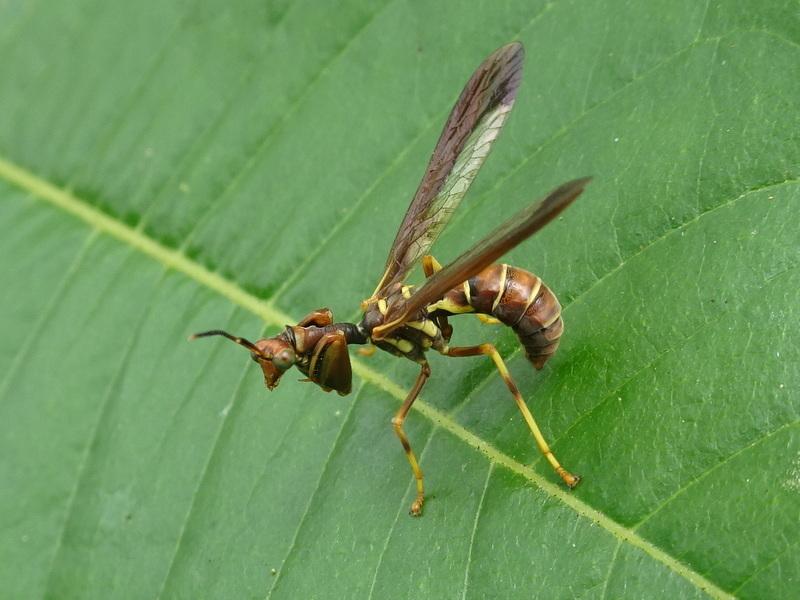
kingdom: Animalia
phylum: Arthropoda
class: Insecta
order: Neuroptera
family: Mantispidae
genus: Climaciella
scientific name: Climaciella brunnea
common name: Brown wasp mantidfly
